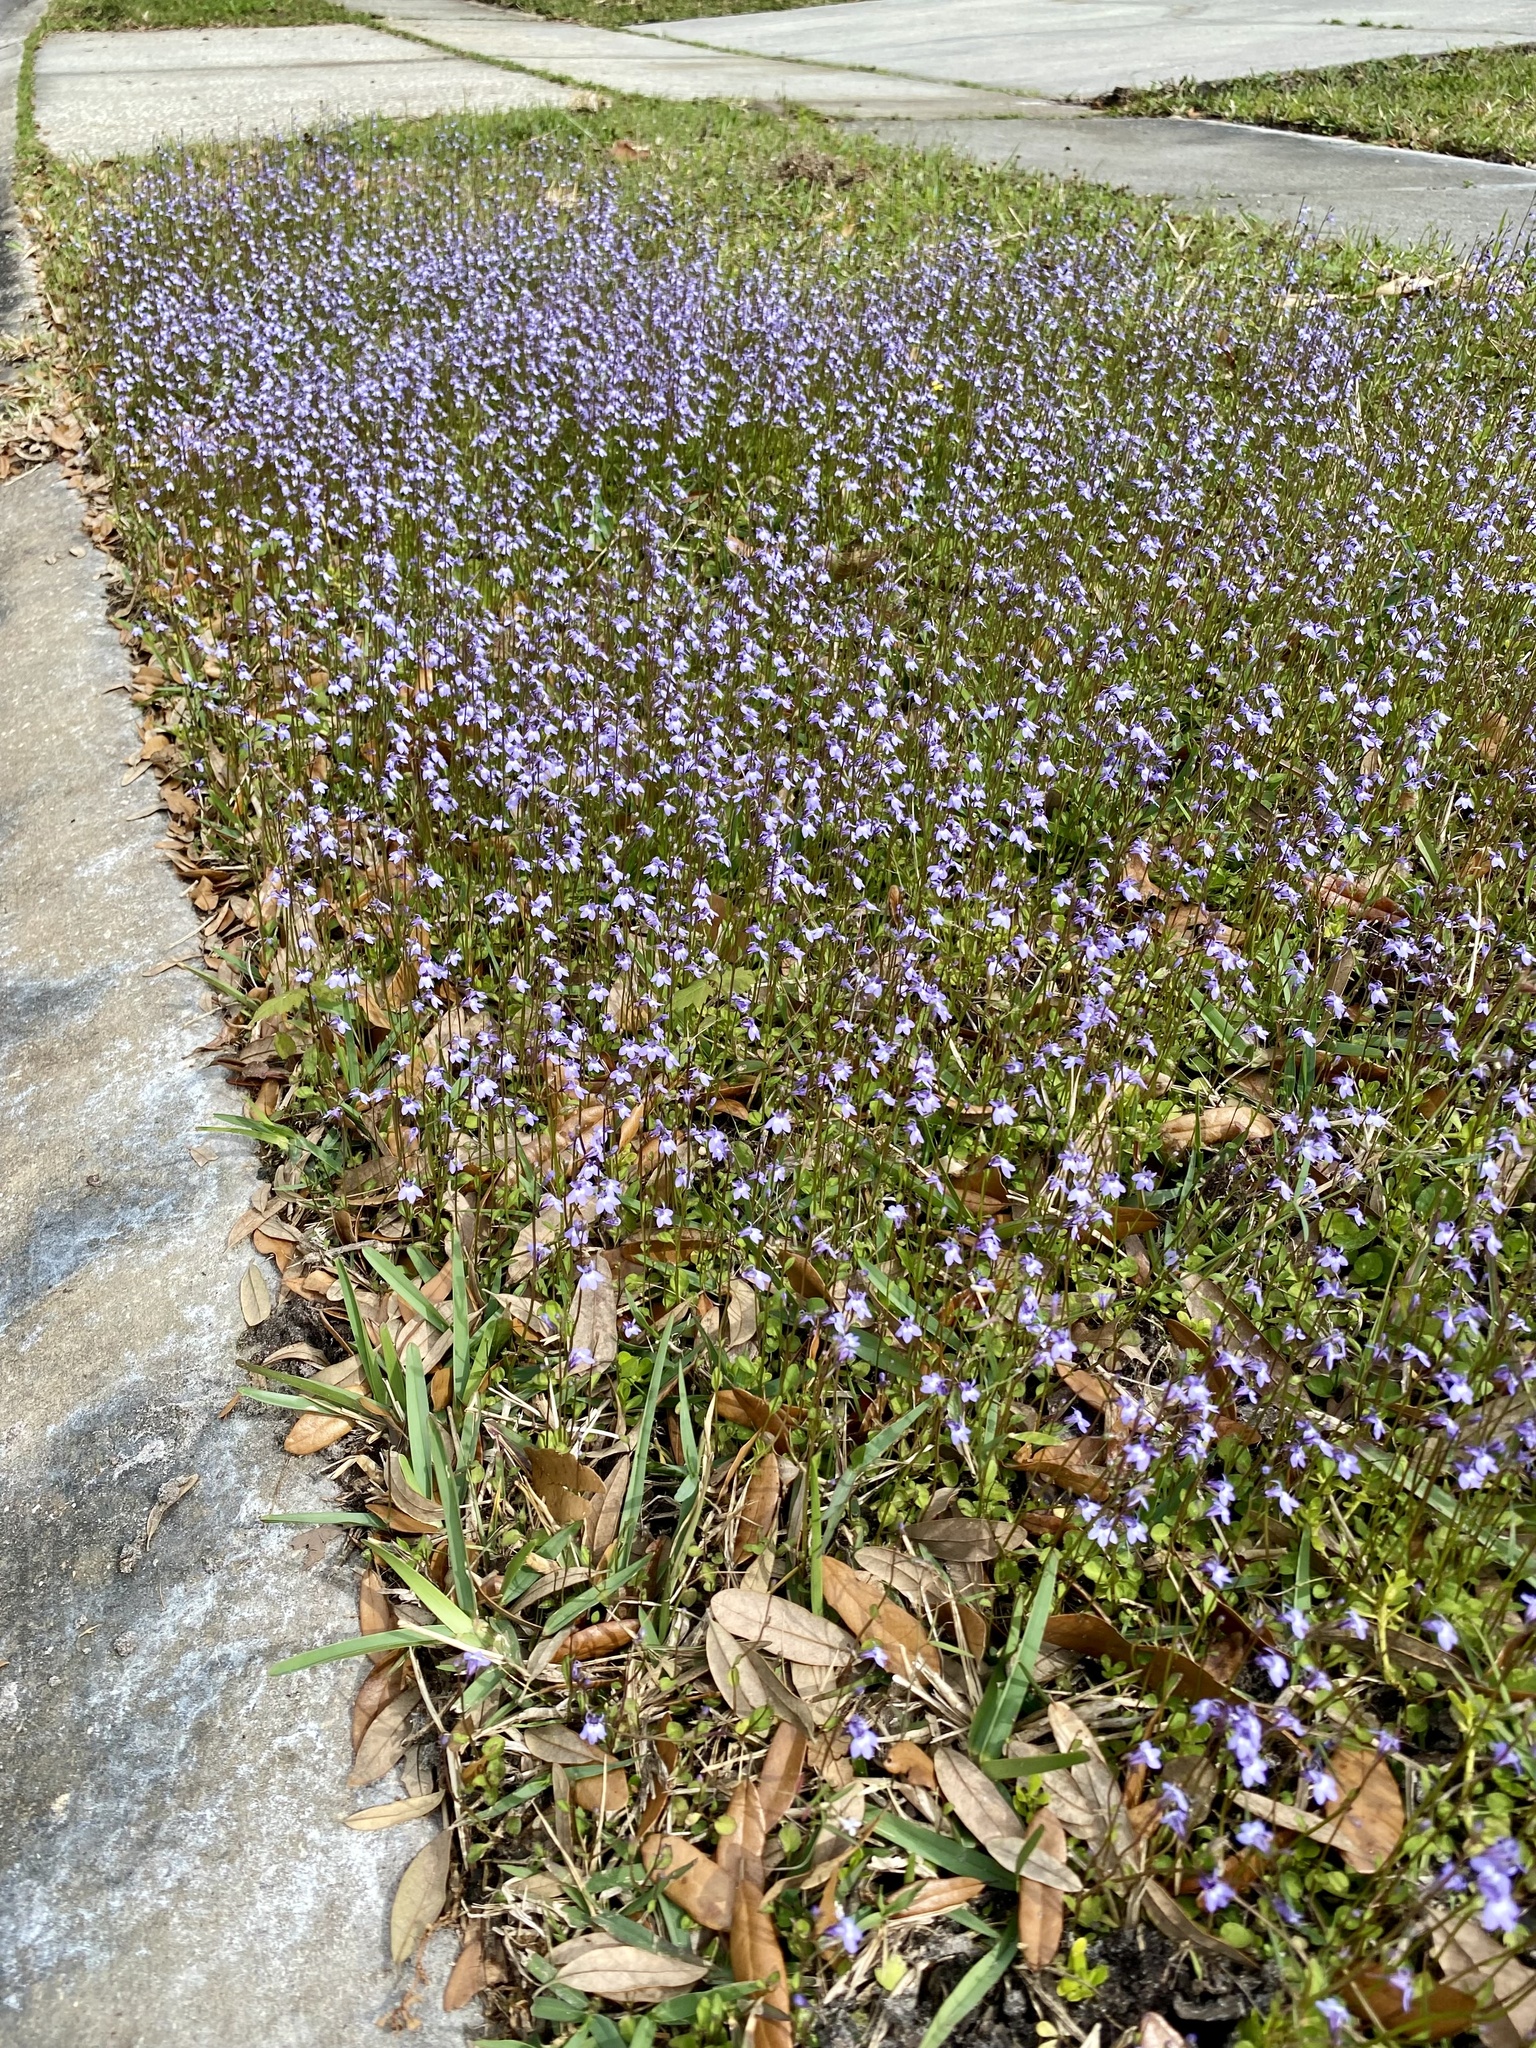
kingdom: Plantae
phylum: Tracheophyta
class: Magnoliopsida
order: Asterales
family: Campanulaceae
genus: Lobelia
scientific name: Lobelia feayana
